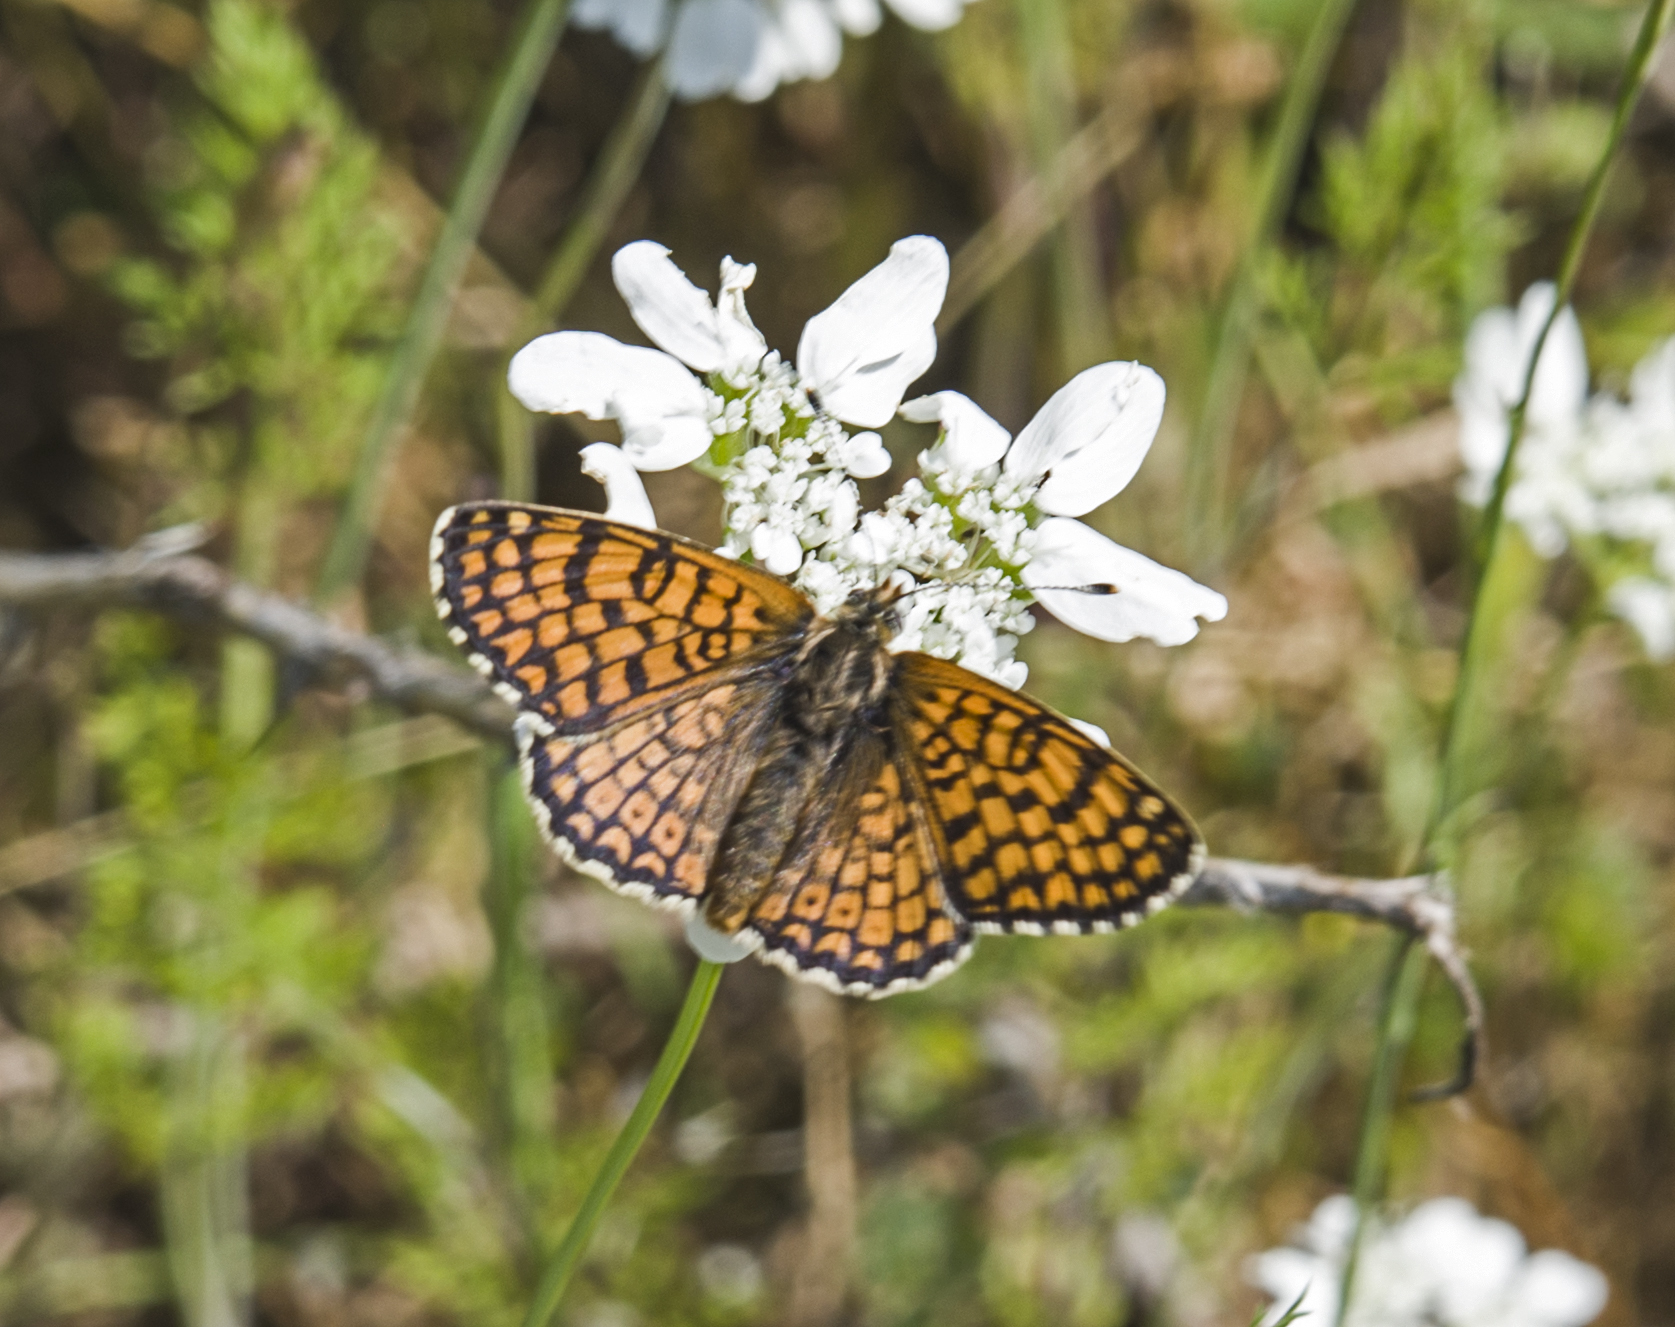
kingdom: Animalia
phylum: Arthropoda
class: Insecta
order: Lepidoptera
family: Nymphalidae
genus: Melitaea
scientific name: Melitaea cinxia
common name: Glanville fritillary
